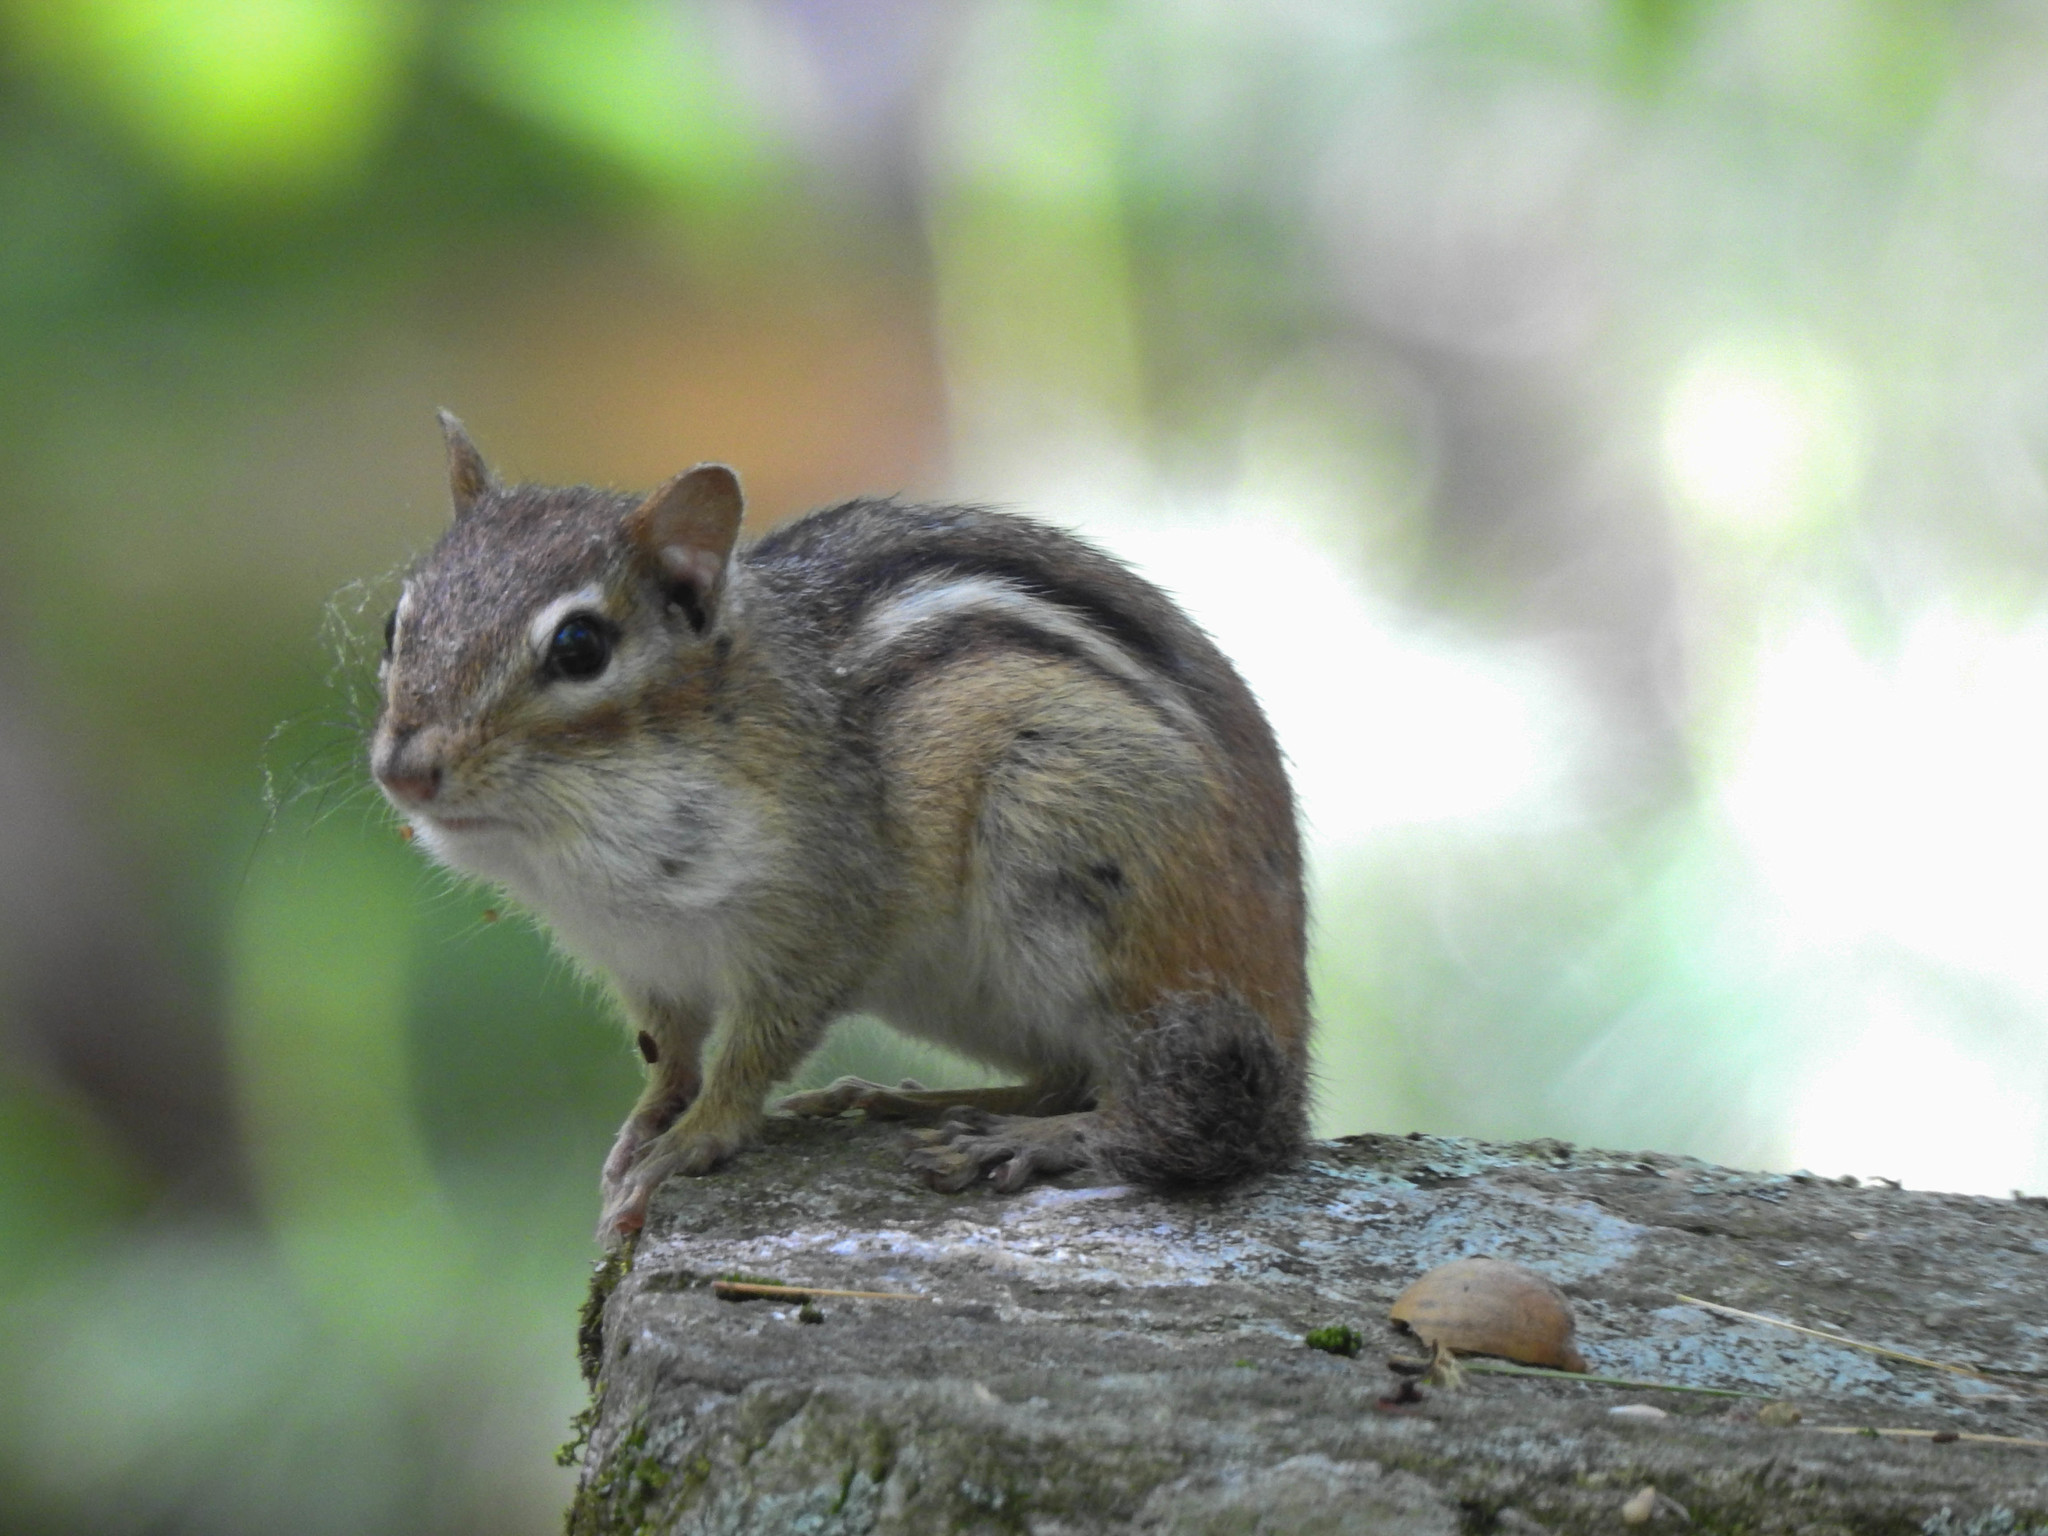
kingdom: Animalia
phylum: Chordata
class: Mammalia
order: Rodentia
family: Sciuridae
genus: Tamias
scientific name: Tamias striatus
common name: Eastern chipmunk
